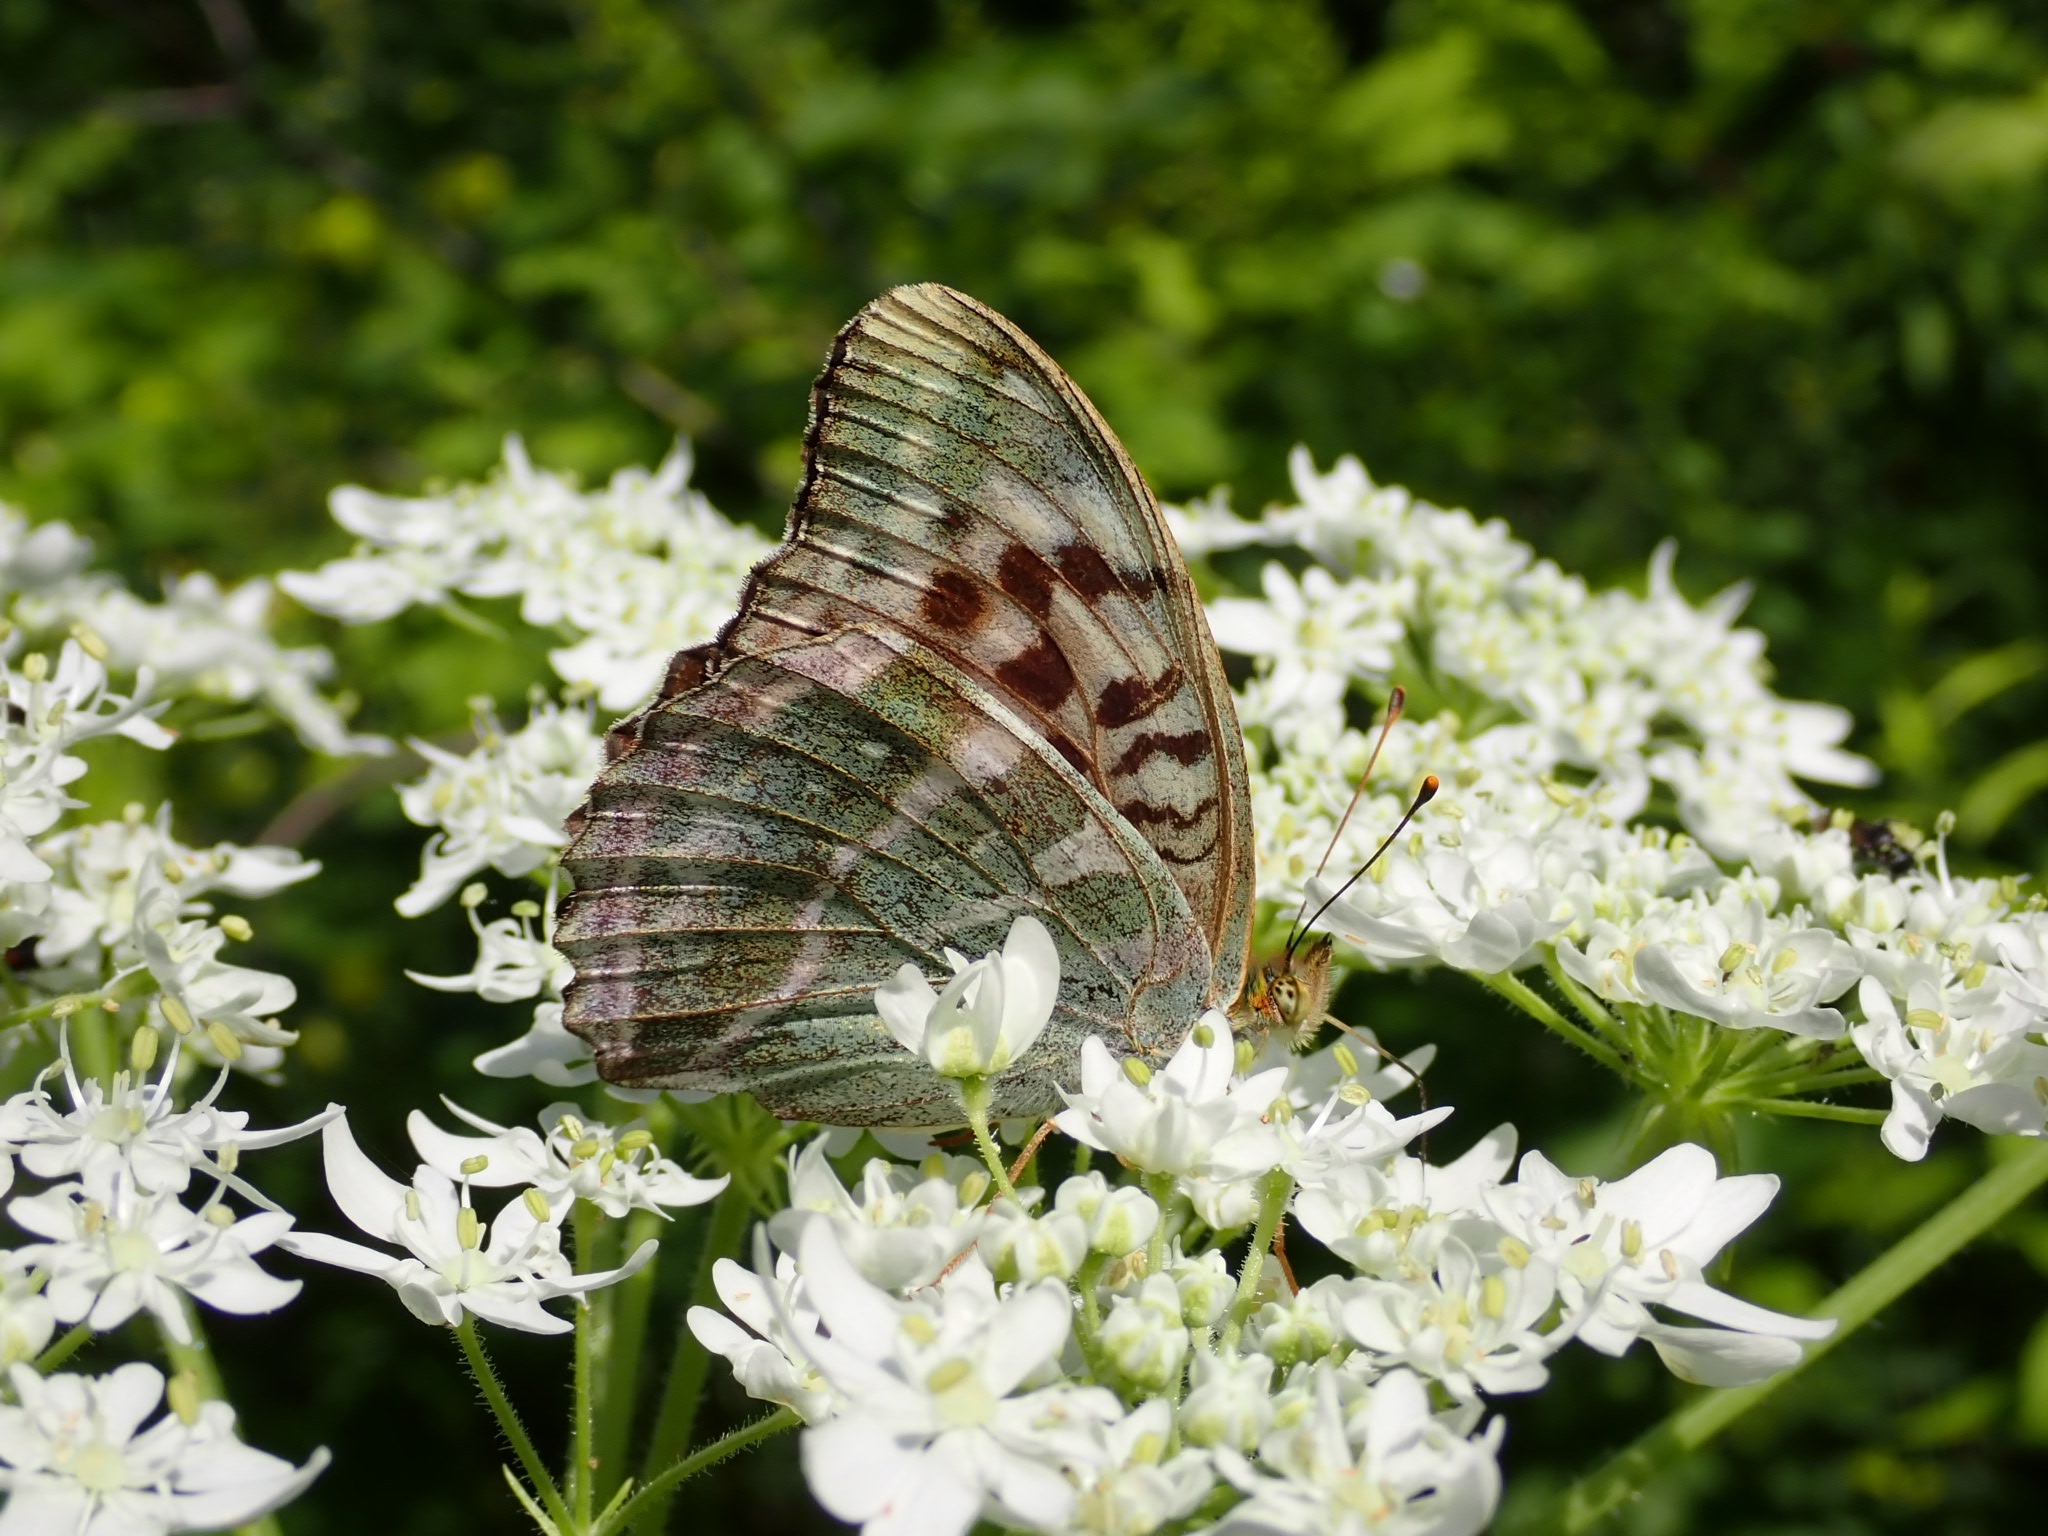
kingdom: Animalia
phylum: Arthropoda
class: Insecta
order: Lepidoptera
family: Nymphalidae
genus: Argynnis
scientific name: Argynnis paphia
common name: Silver-washed fritillary
